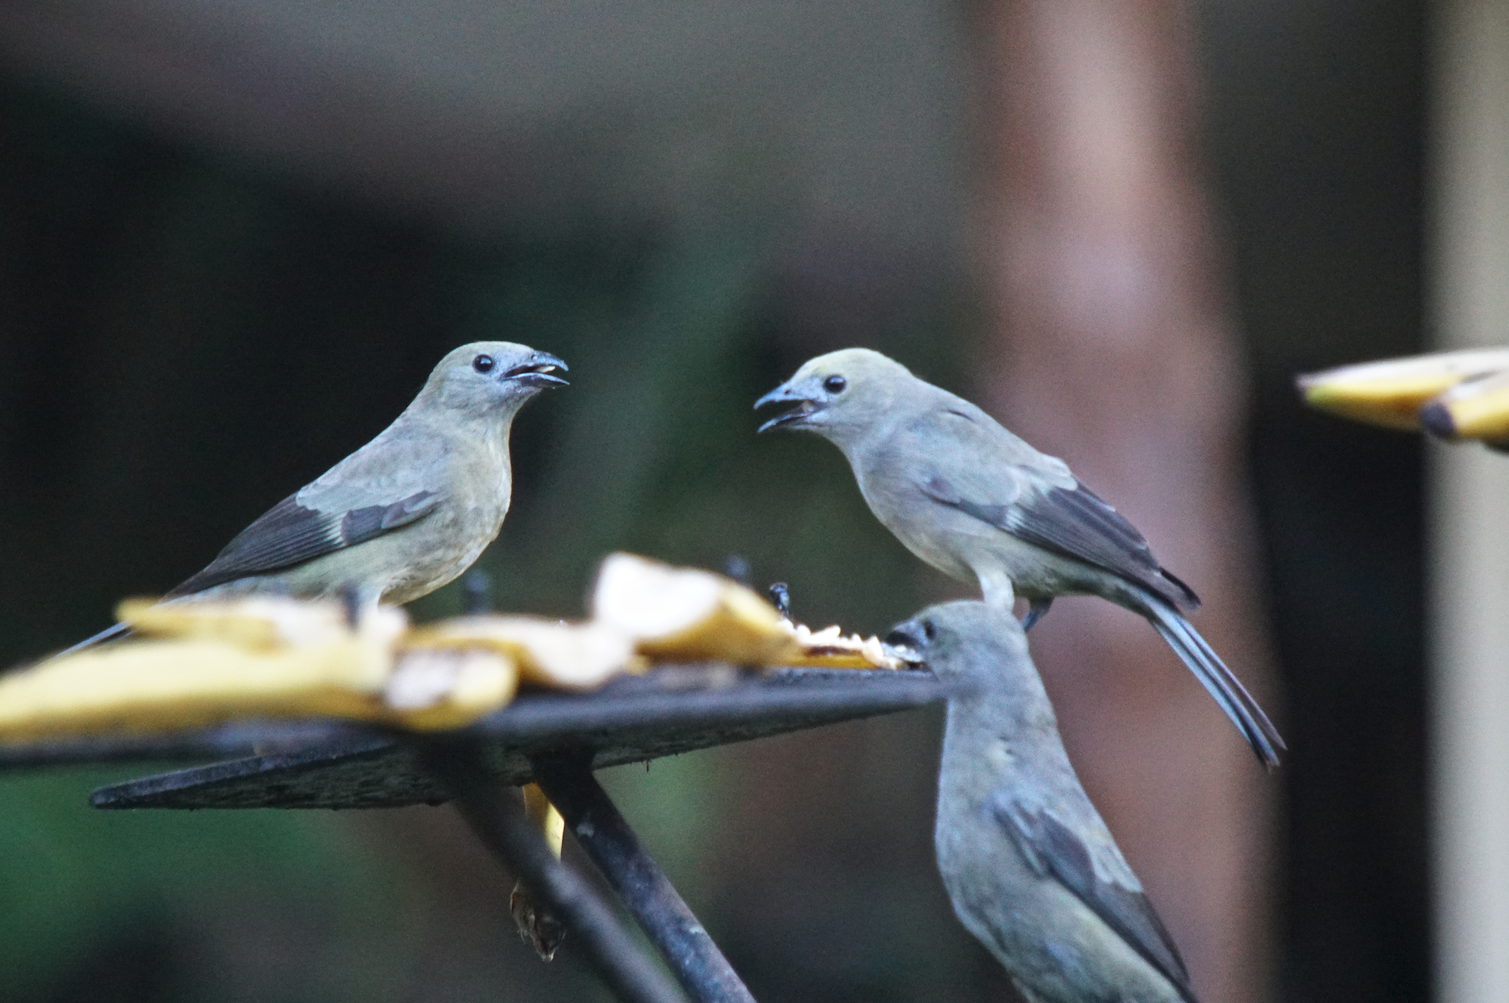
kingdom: Animalia
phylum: Chordata
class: Aves
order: Passeriformes
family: Thraupidae
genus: Thraupis
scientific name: Thraupis palmarum
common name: Palm tanager
